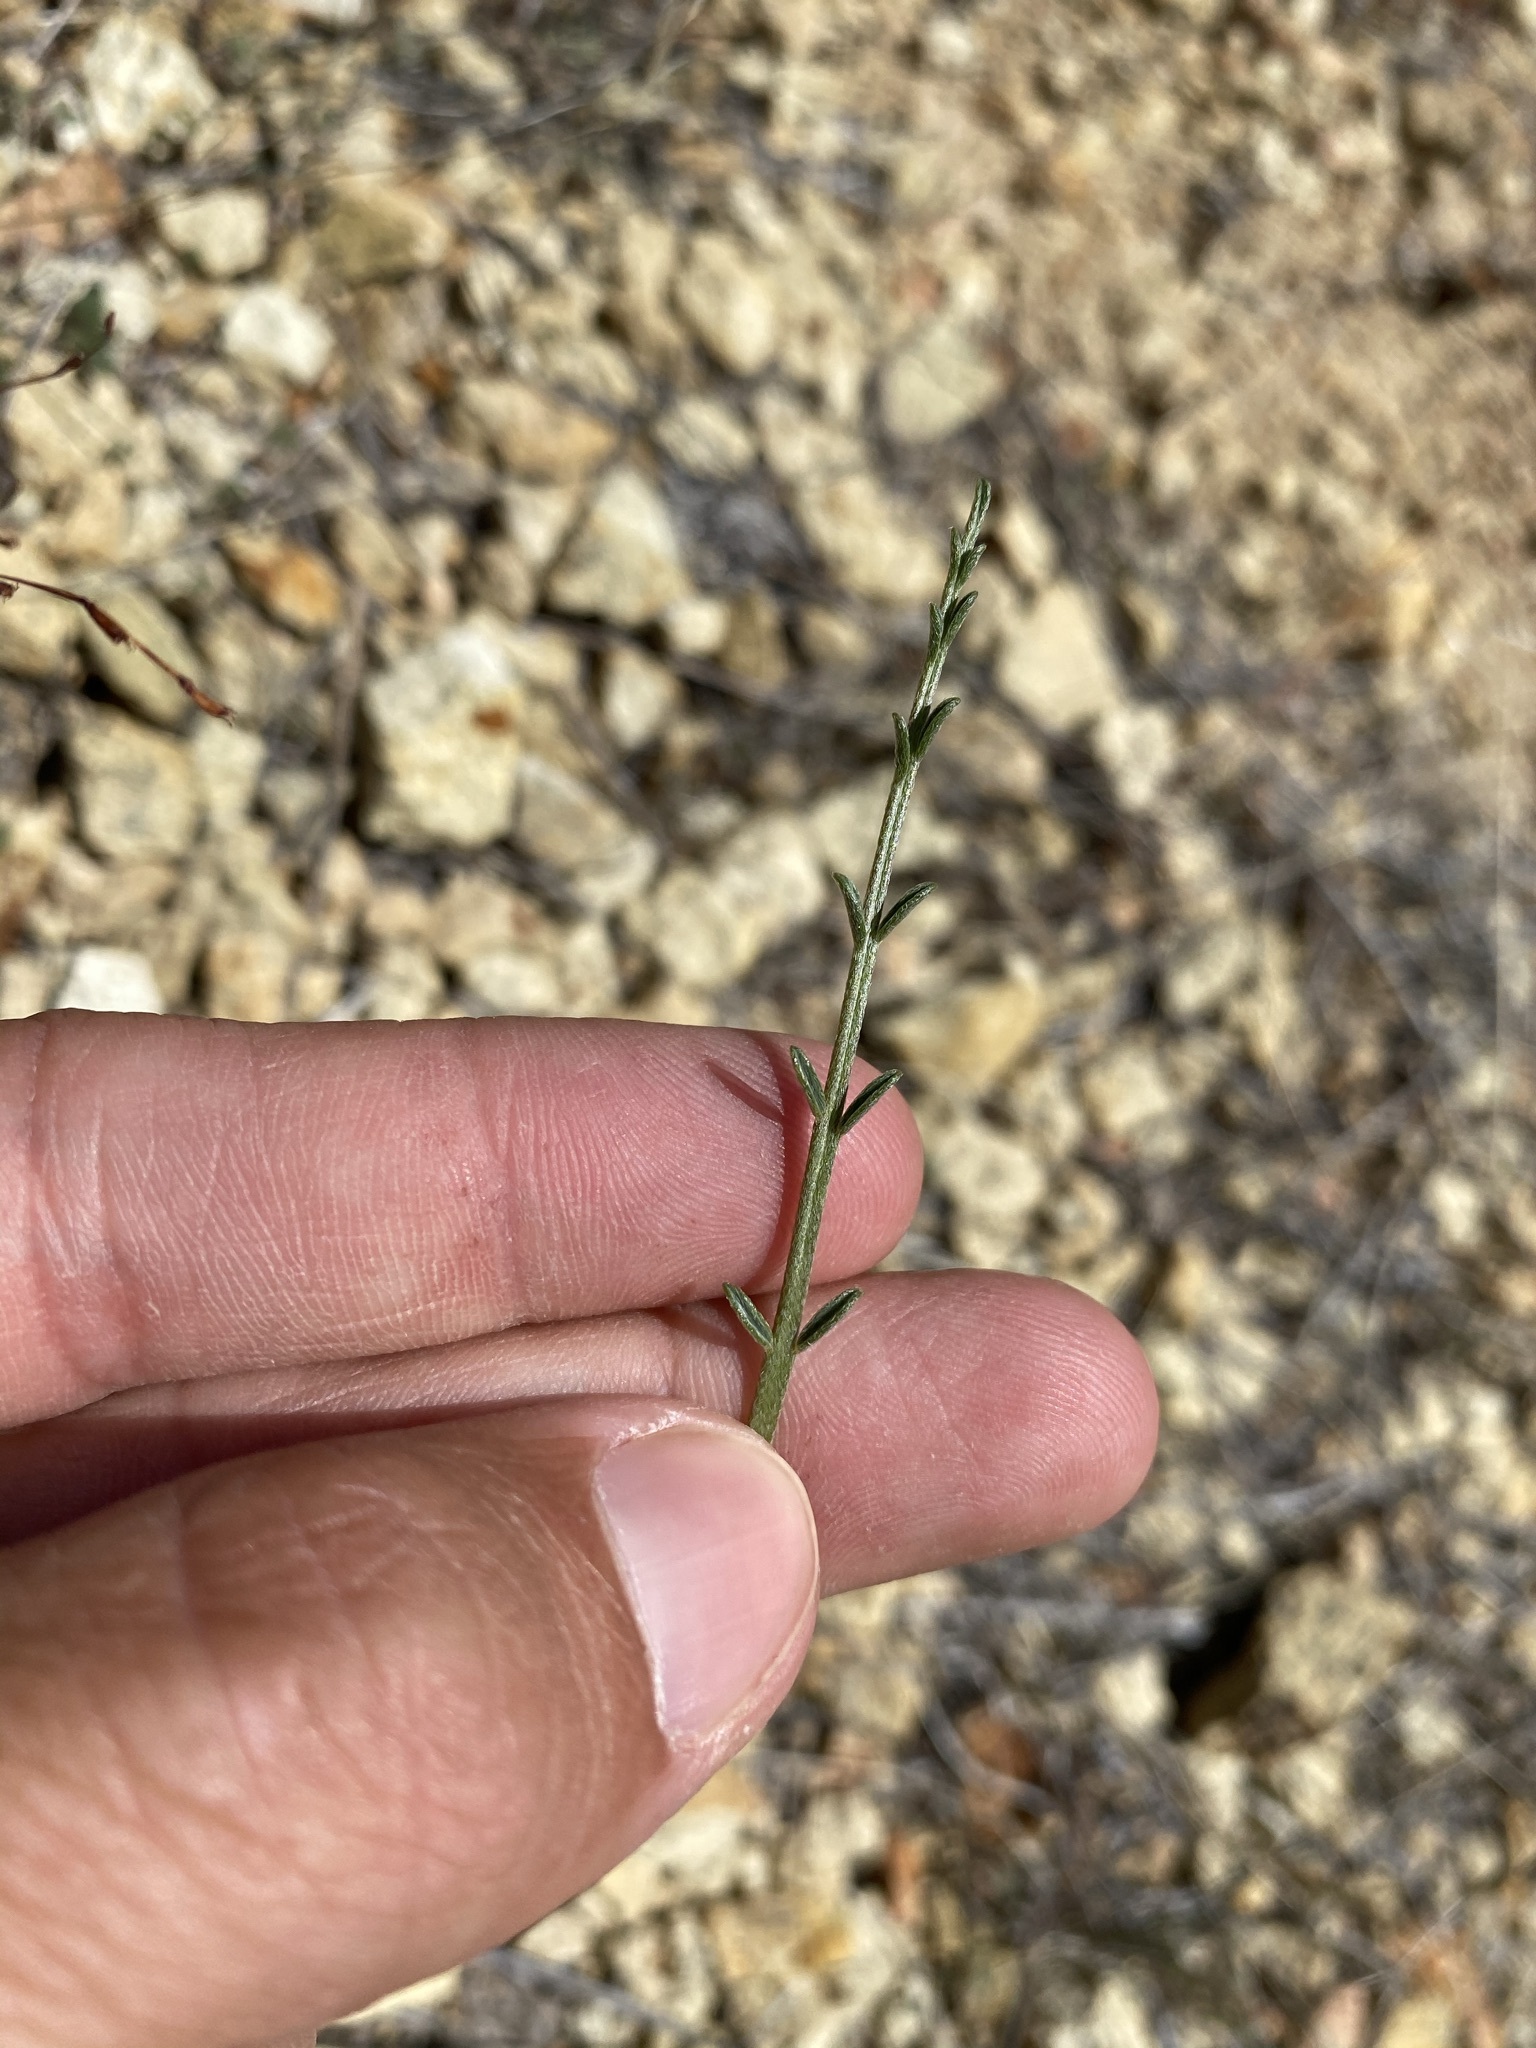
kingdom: Plantae
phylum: Tracheophyta
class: Magnoliopsida
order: Fabales
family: Fabaceae
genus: Astragalus
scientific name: Astragalus sterilis
